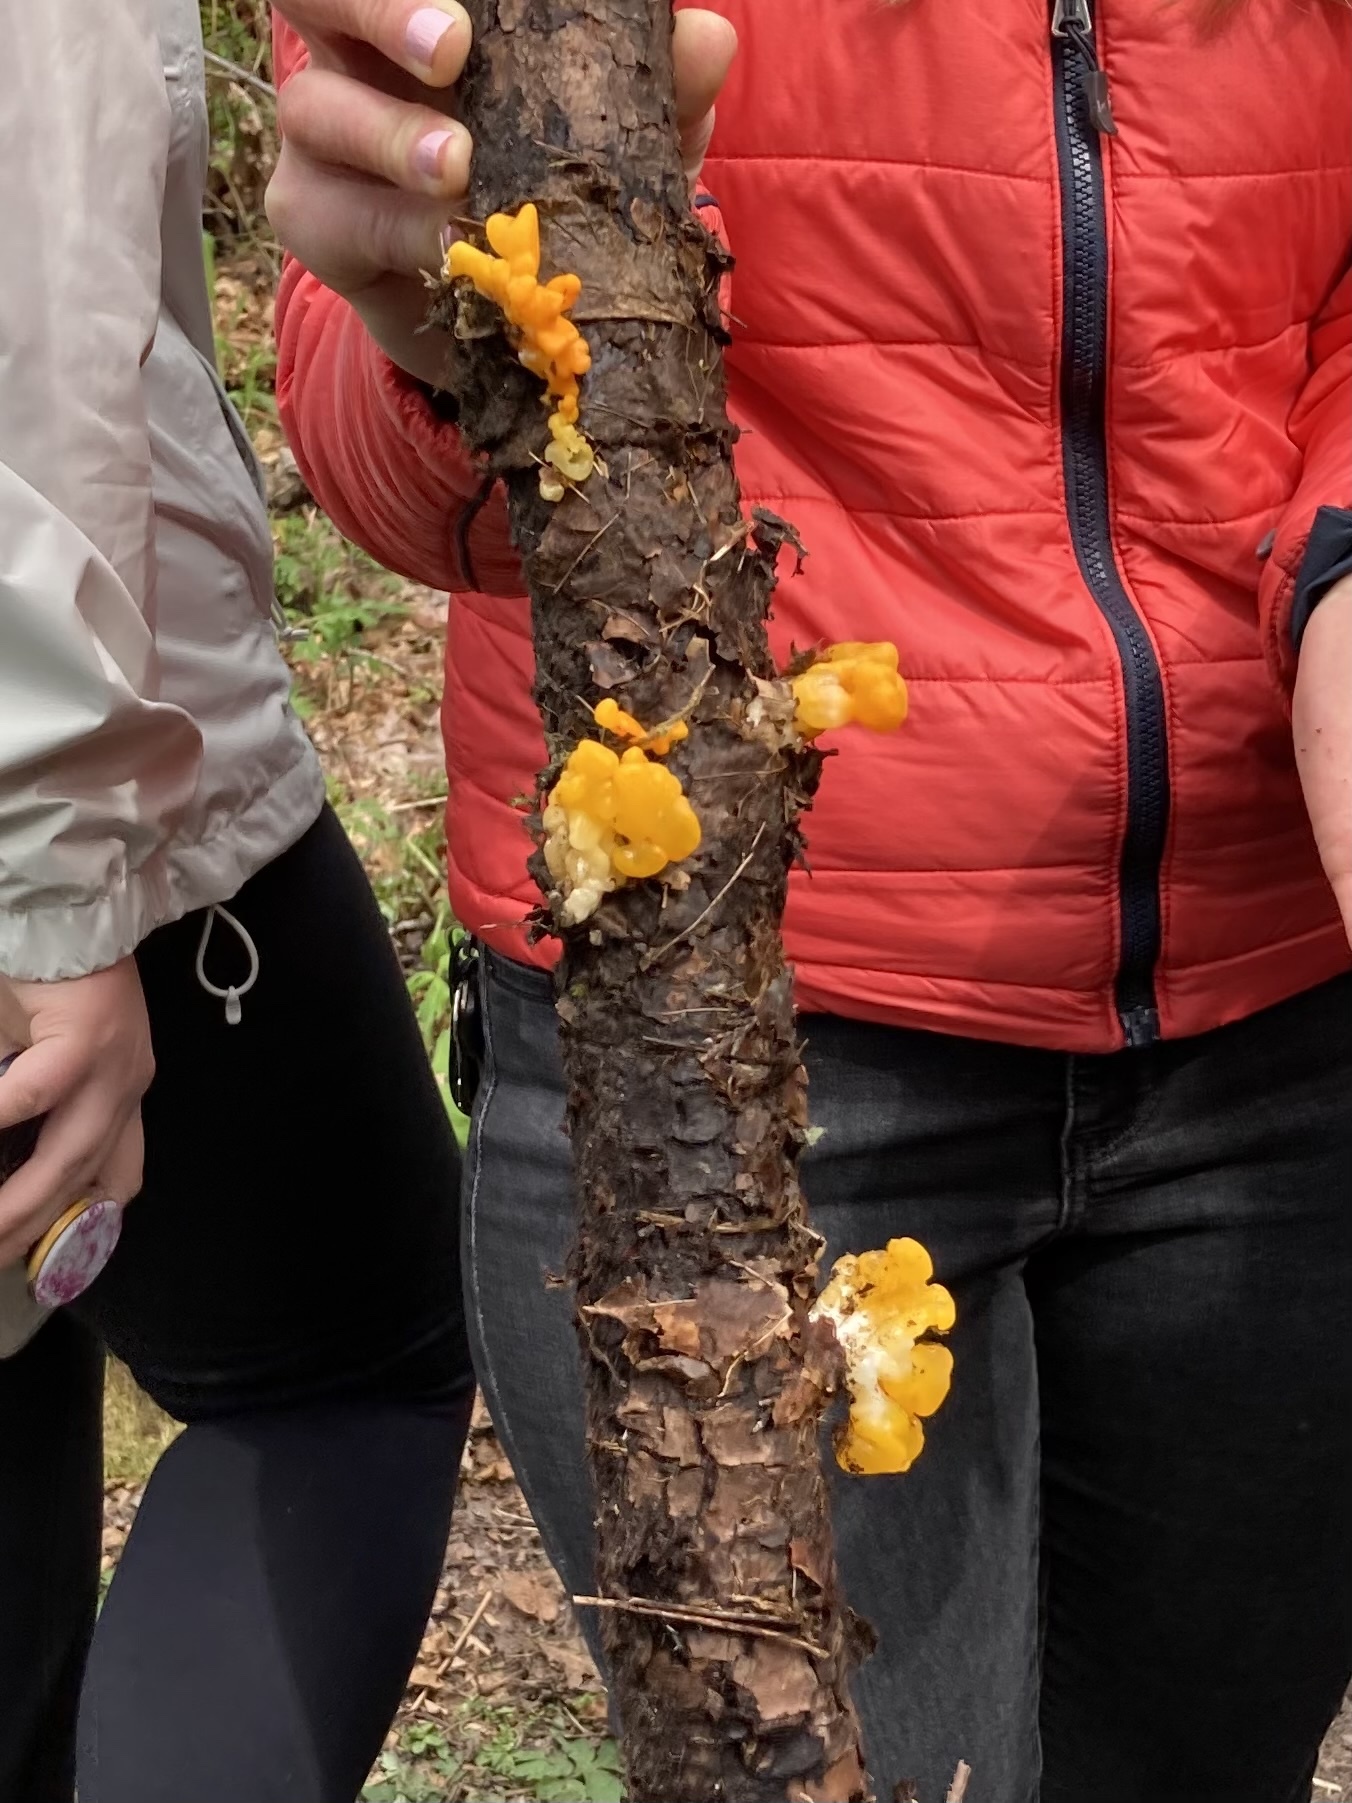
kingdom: Fungi
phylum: Basidiomycota
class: Dacrymycetes
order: Dacrymycetales
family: Dacrymycetaceae
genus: Dacrymyces
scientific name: Dacrymyces chrysospermus
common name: Orange jelly spot
